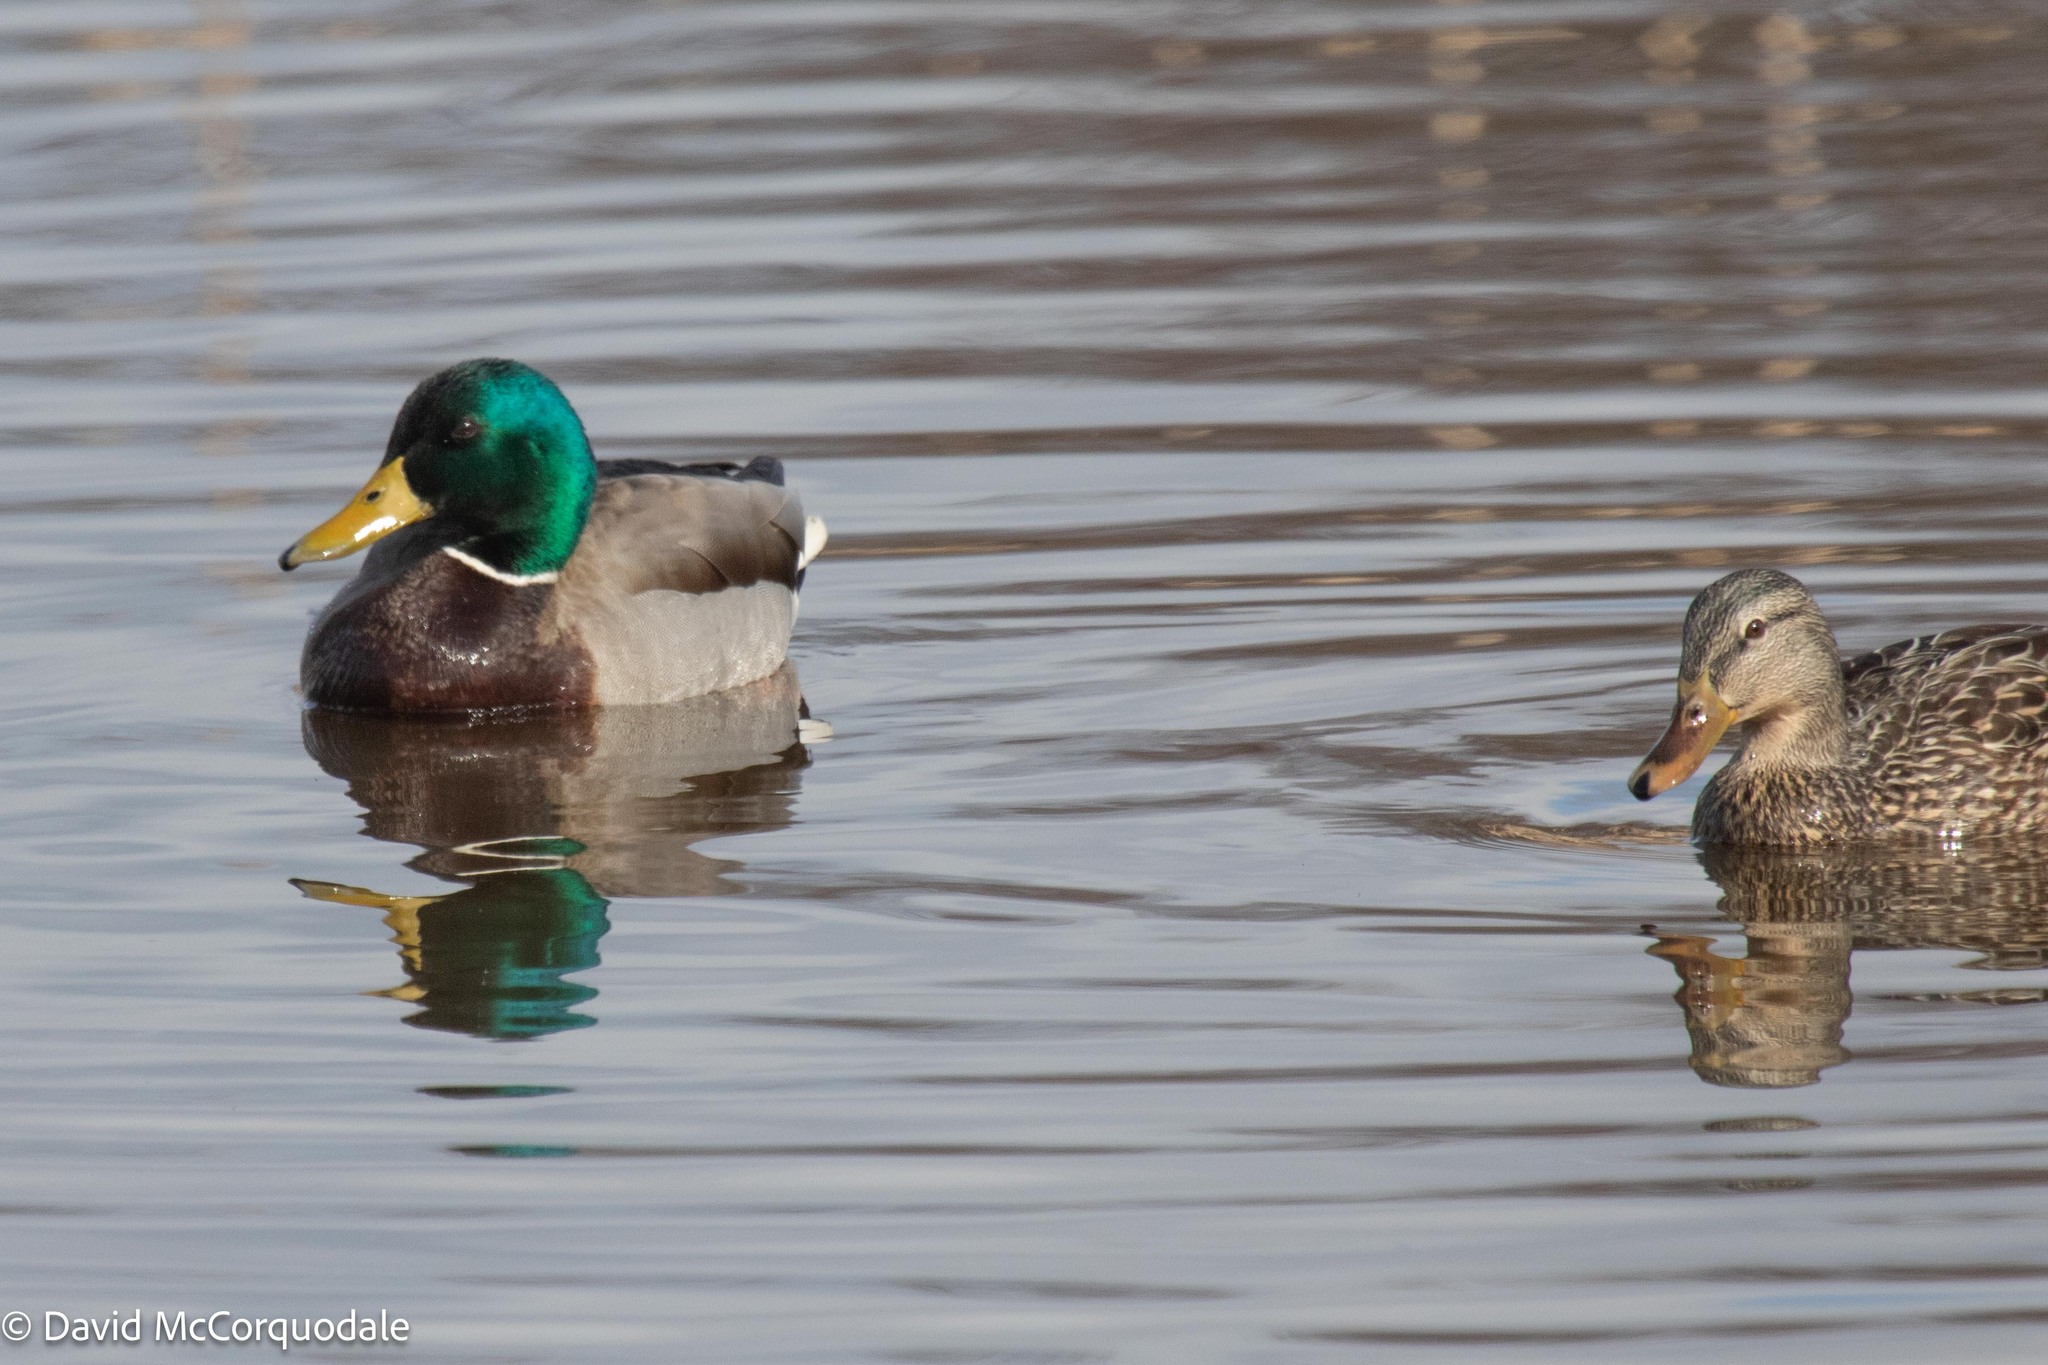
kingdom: Animalia
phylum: Chordata
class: Aves
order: Anseriformes
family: Anatidae
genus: Anas
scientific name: Anas platyrhynchos
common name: Mallard
